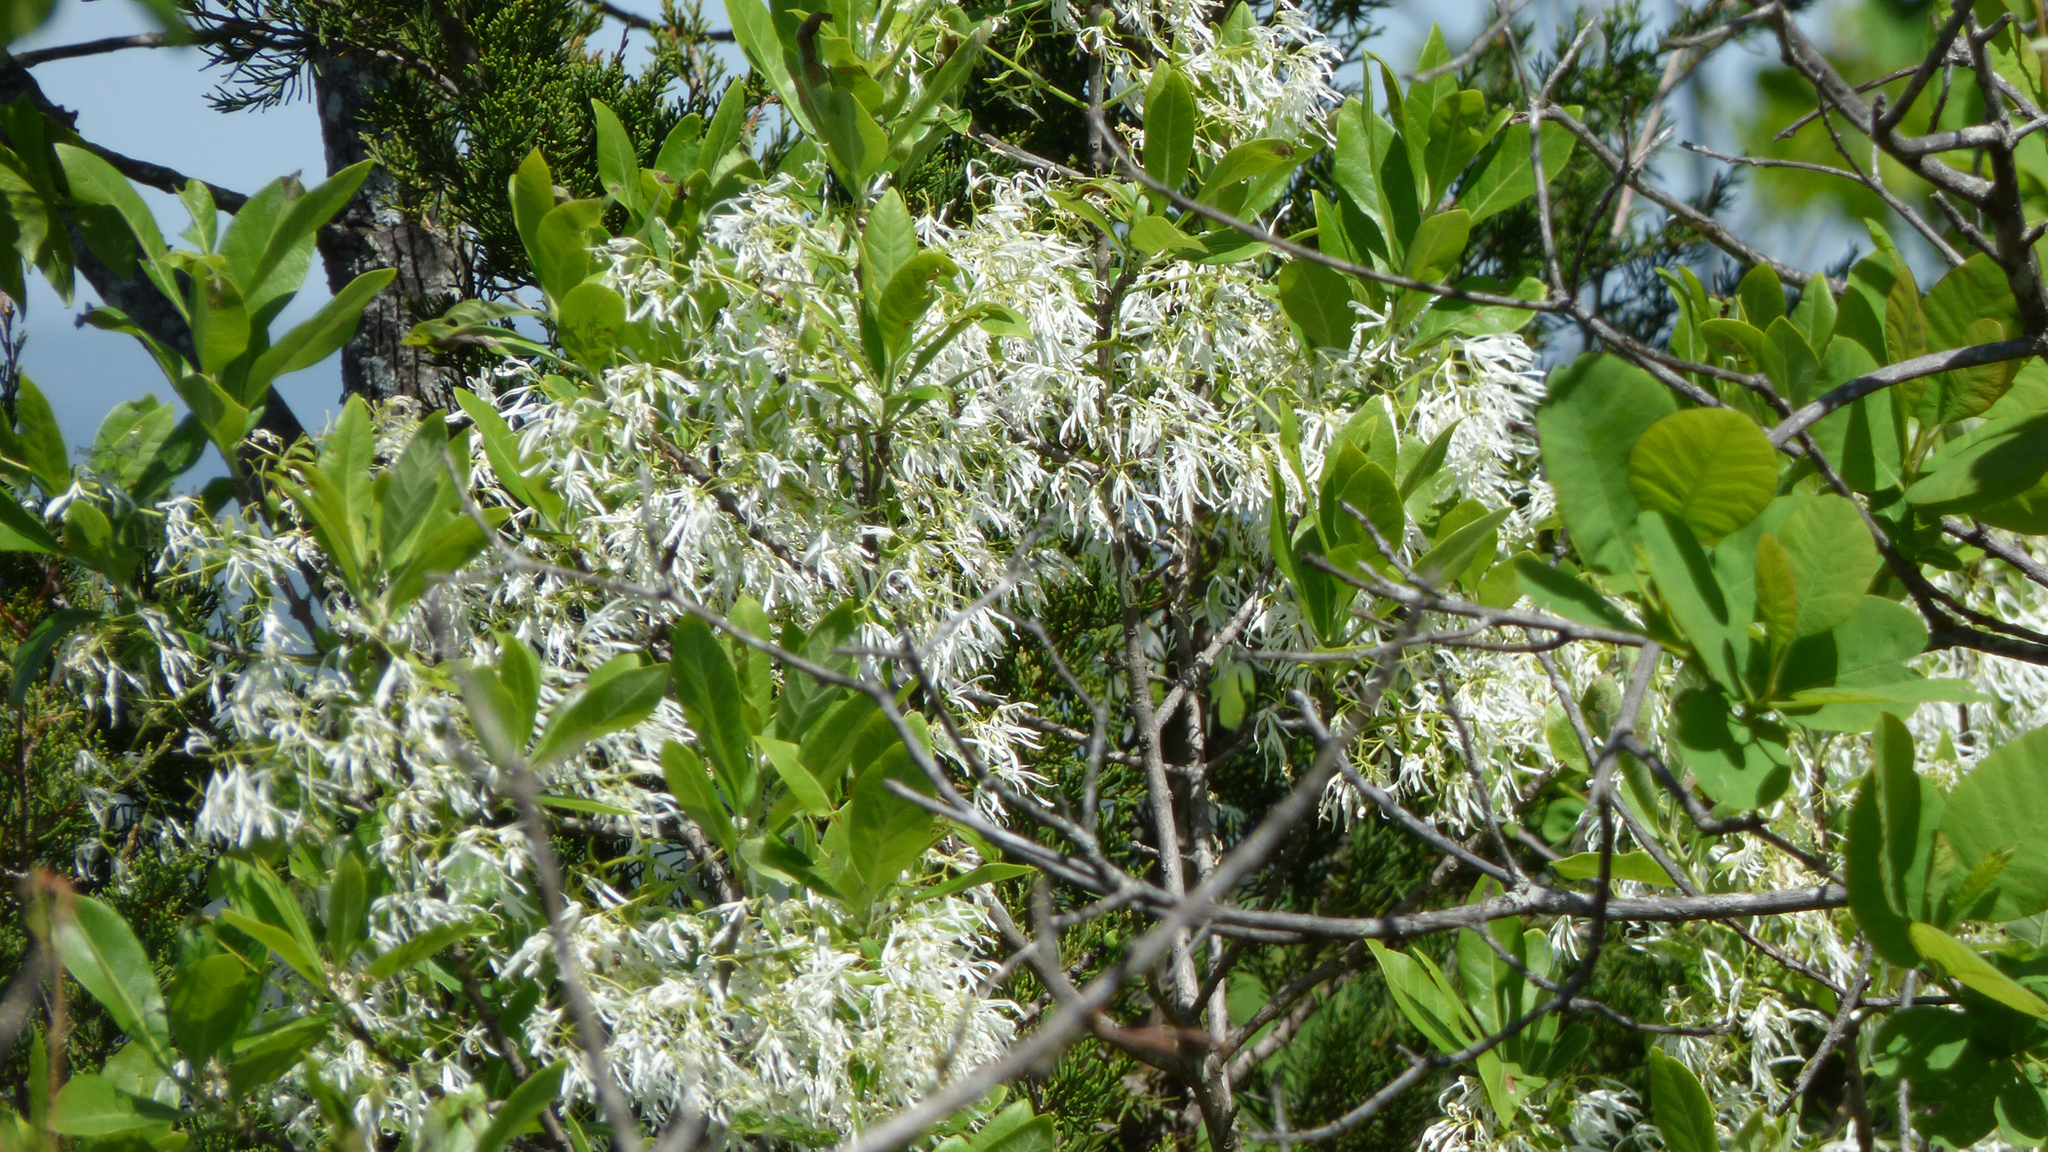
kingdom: Plantae
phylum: Tracheophyta
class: Magnoliopsida
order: Lamiales
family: Oleaceae
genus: Chionanthus
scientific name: Chionanthus virginicus
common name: American fringetree
